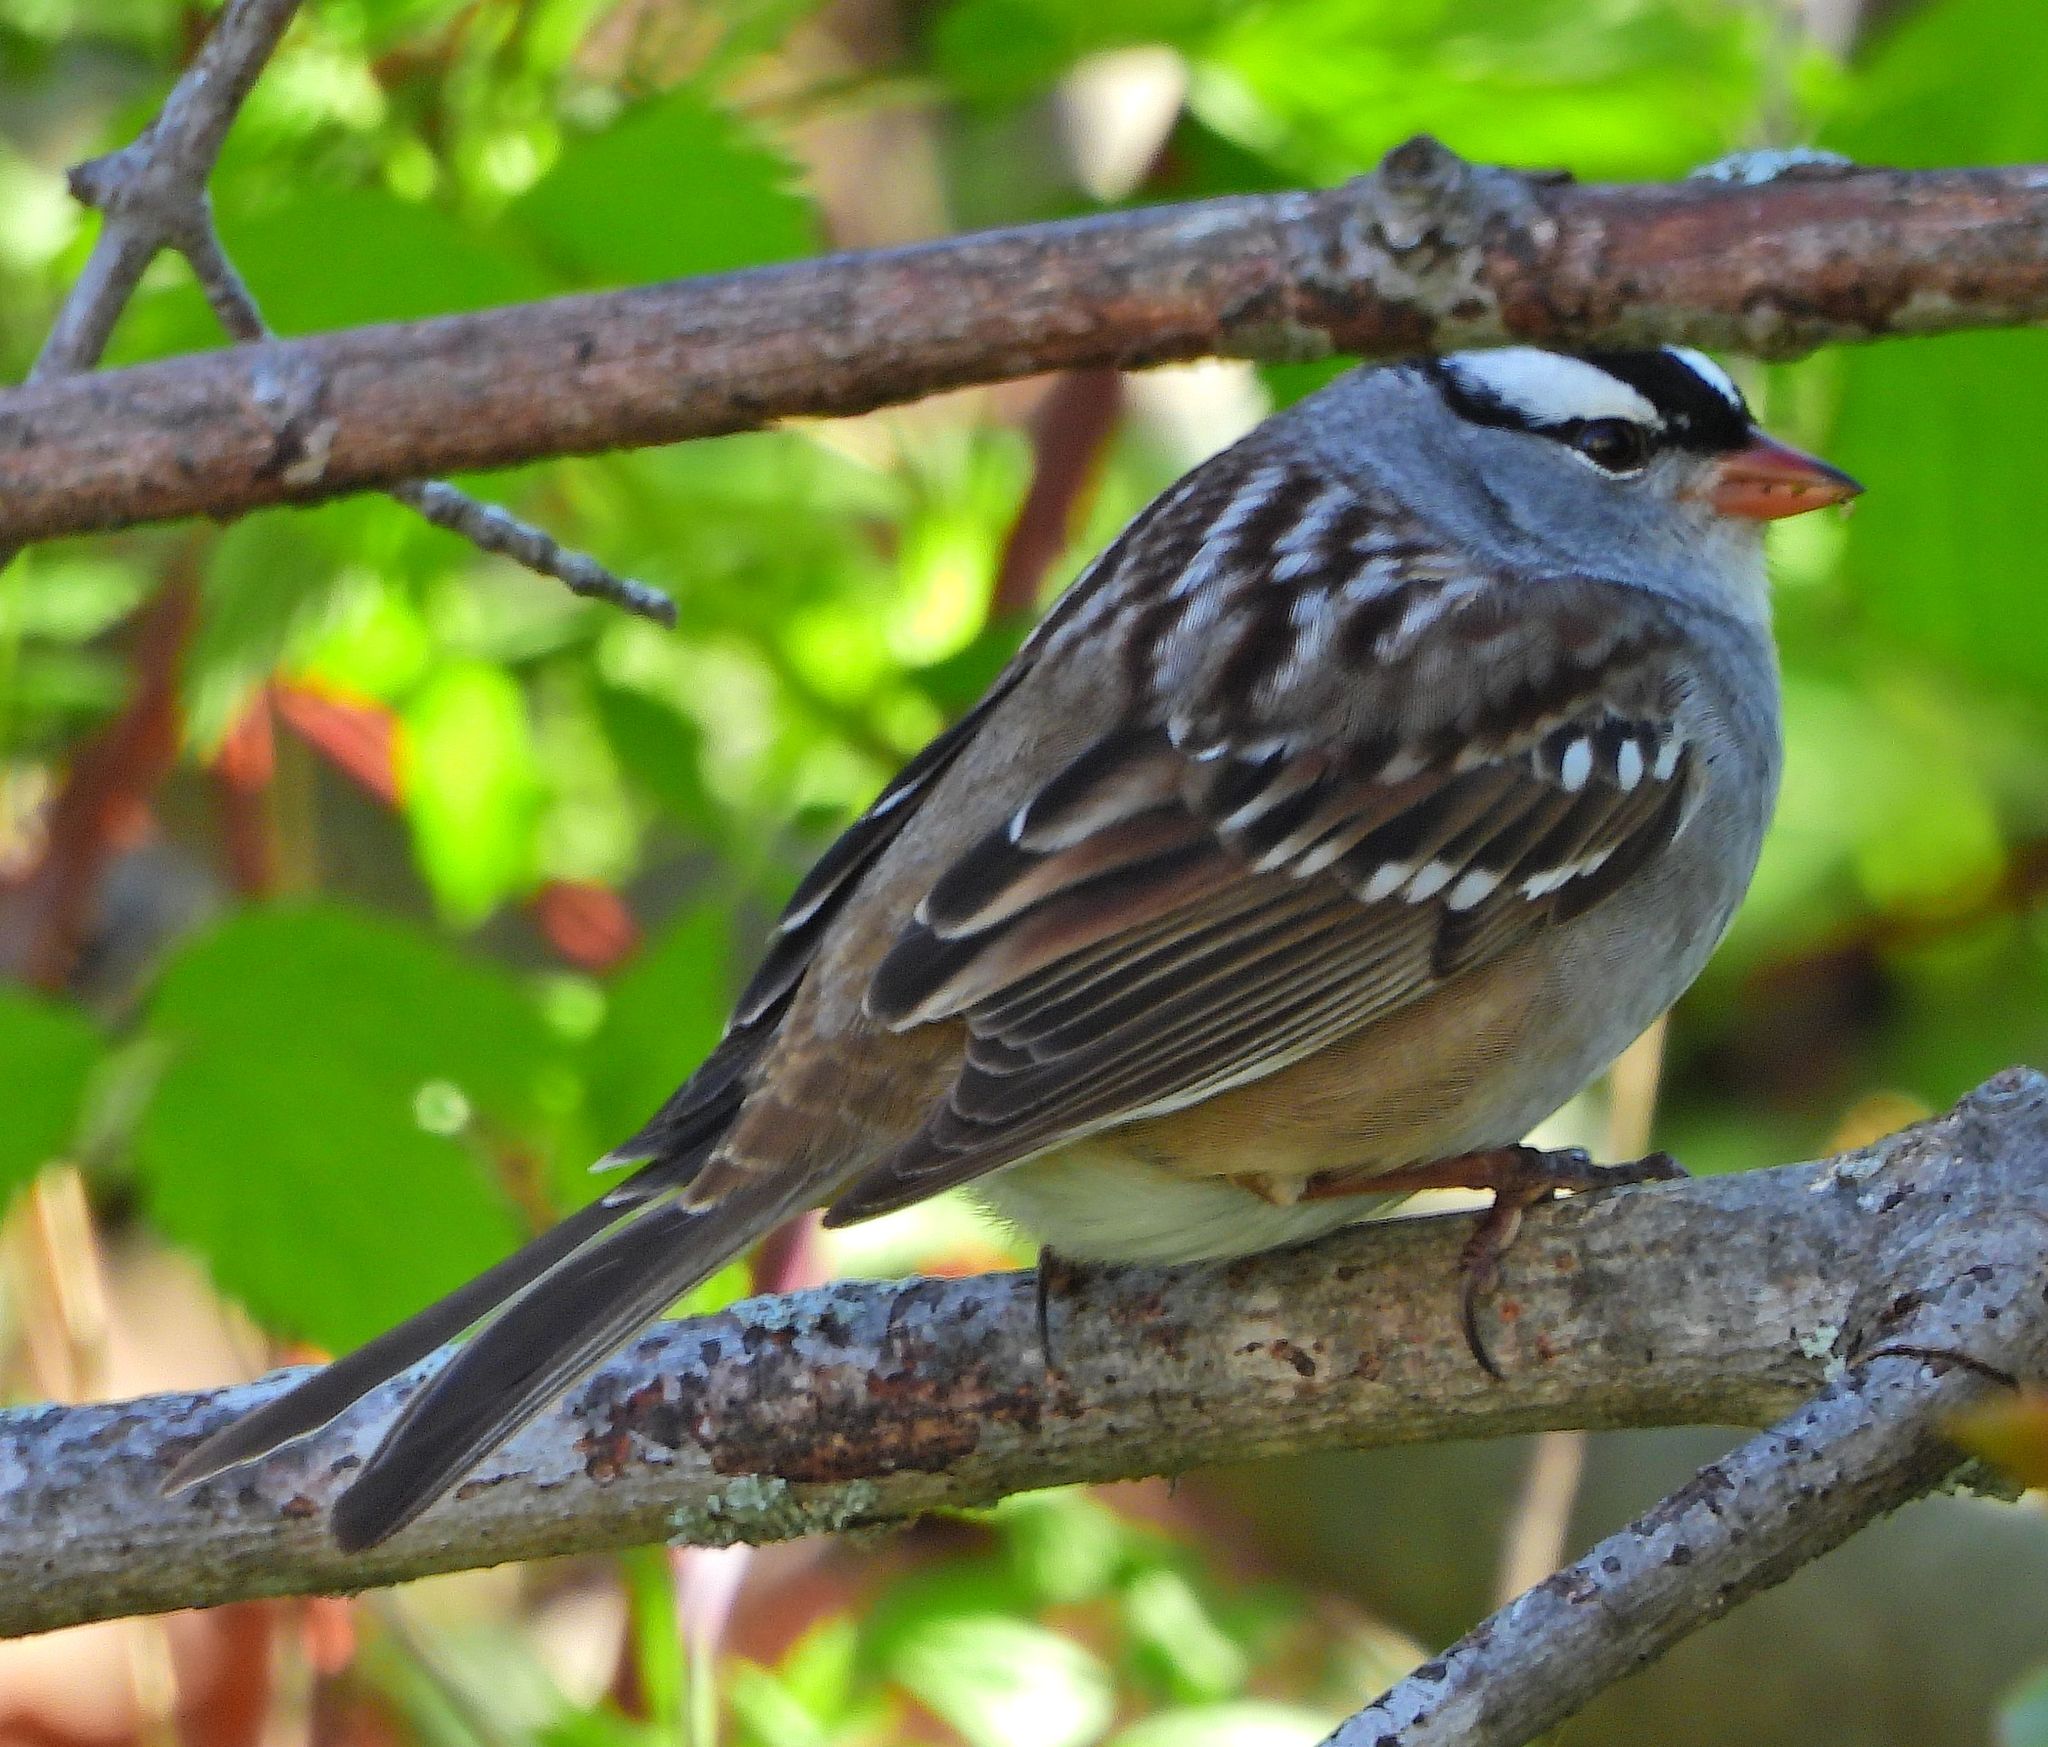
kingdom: Animalia
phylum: Chordata
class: Aves
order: Passeriformes
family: Passerellidae
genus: Zonotrichia
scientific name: Zonotrichia leucophrys
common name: White-crowned sparrow
